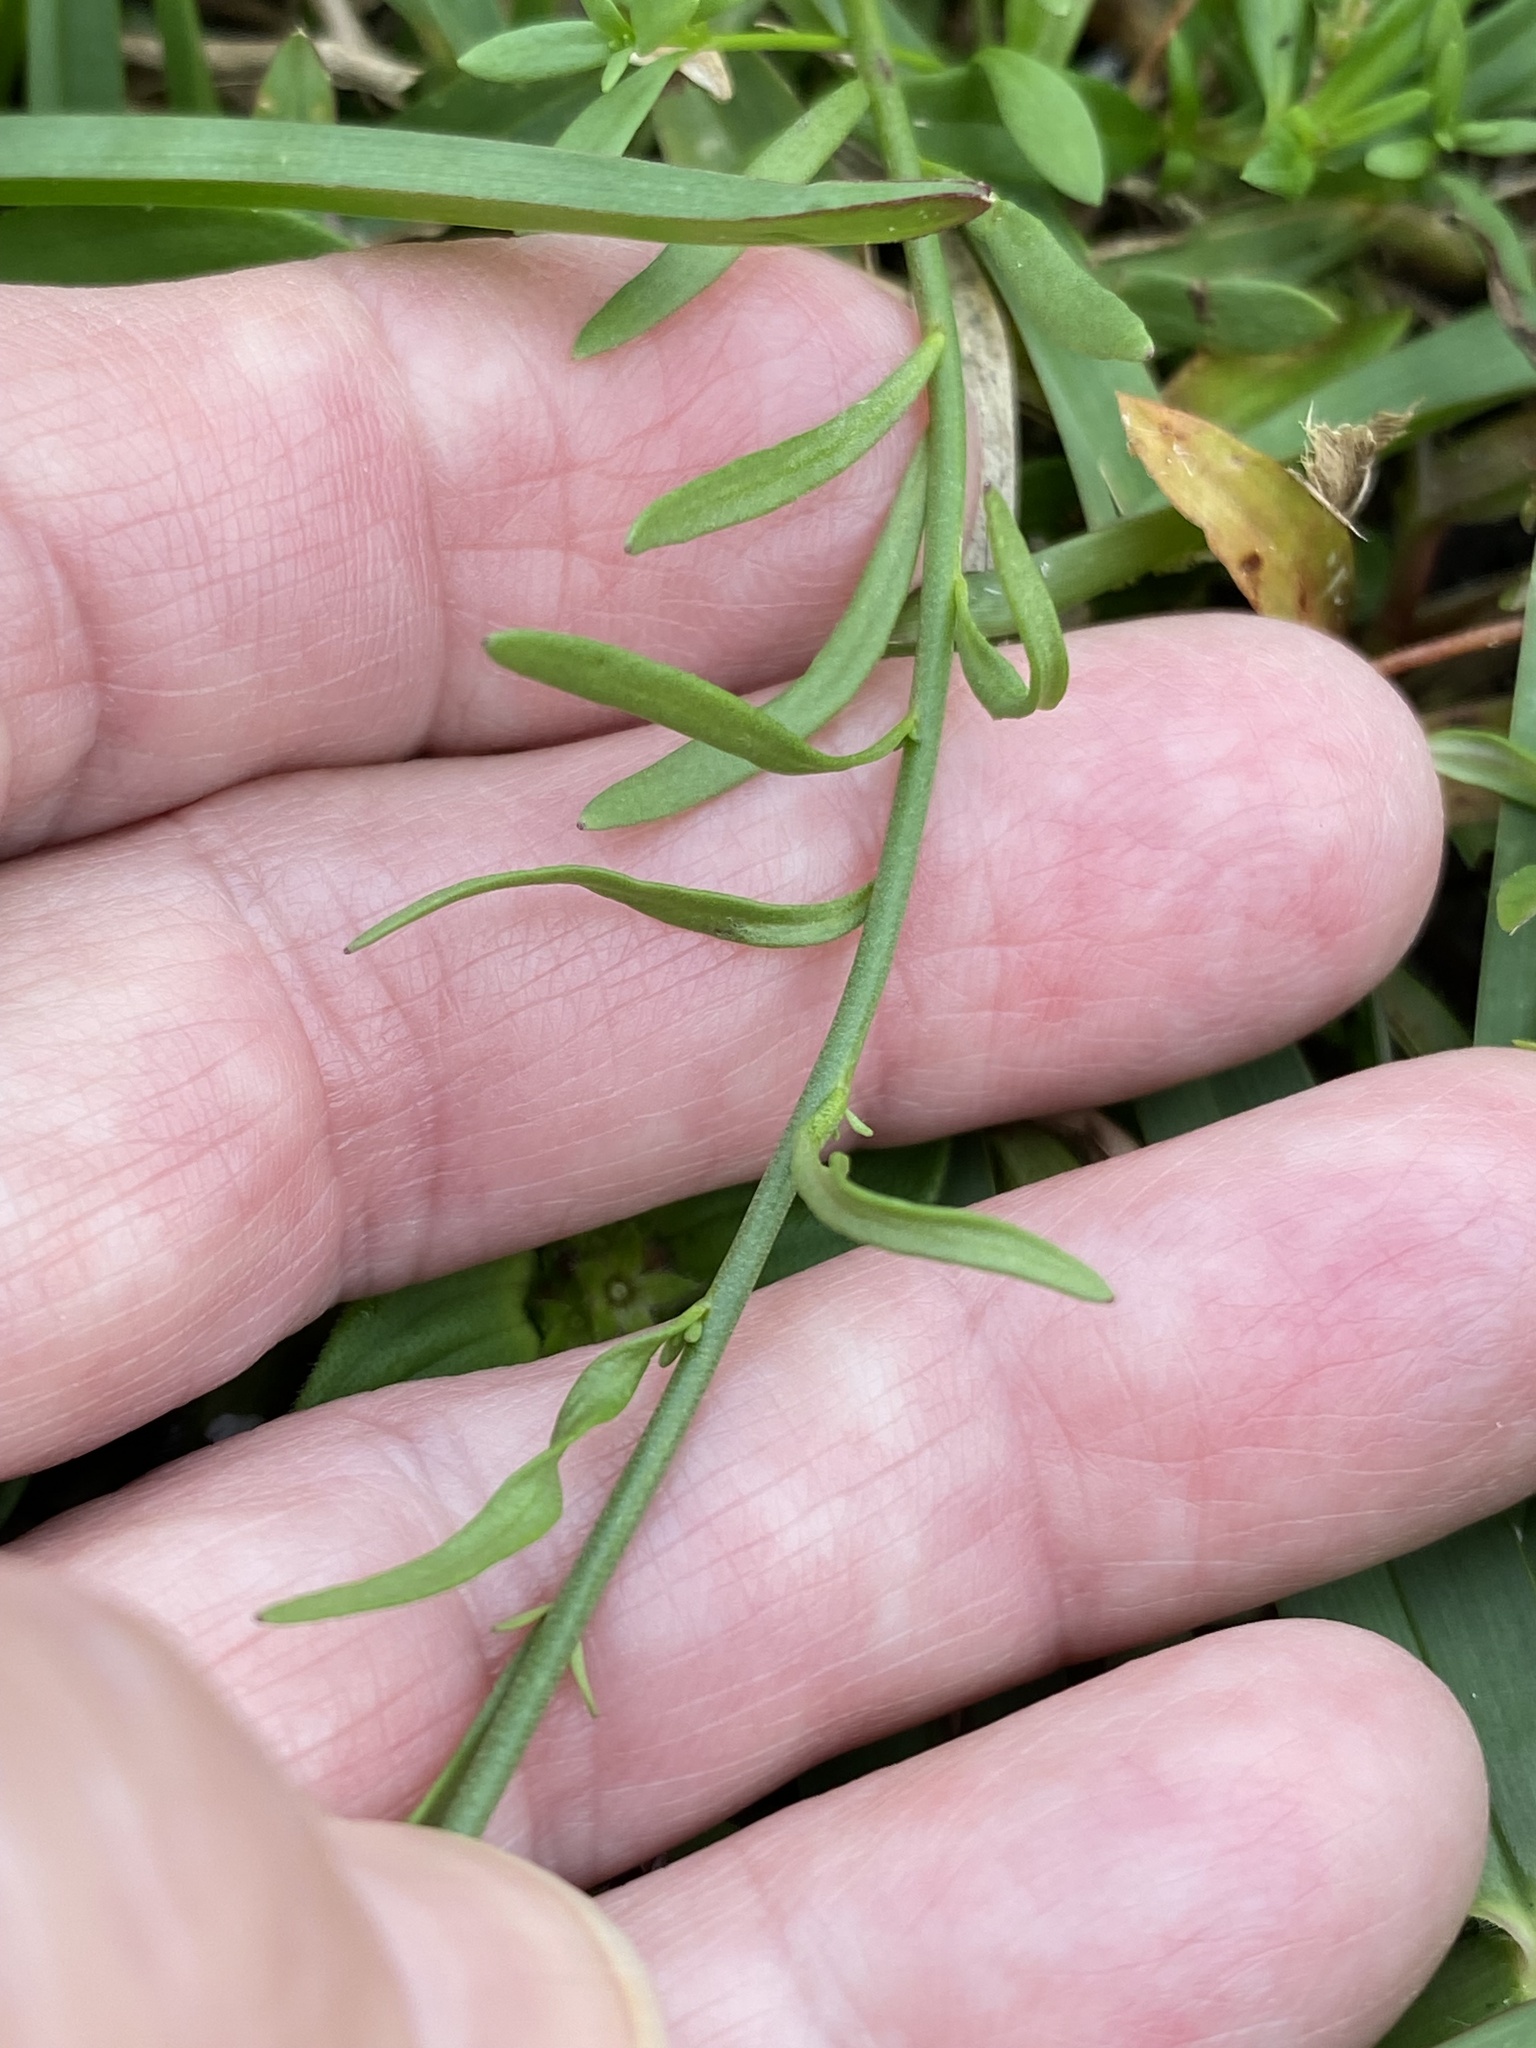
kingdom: Plantae
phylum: Tracheophyta
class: Magnoliopsida
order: Lamiales
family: Plantaginaceae
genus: Nuttallanthus
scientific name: Nuttallanthus canadensis
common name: Blue toadflax
